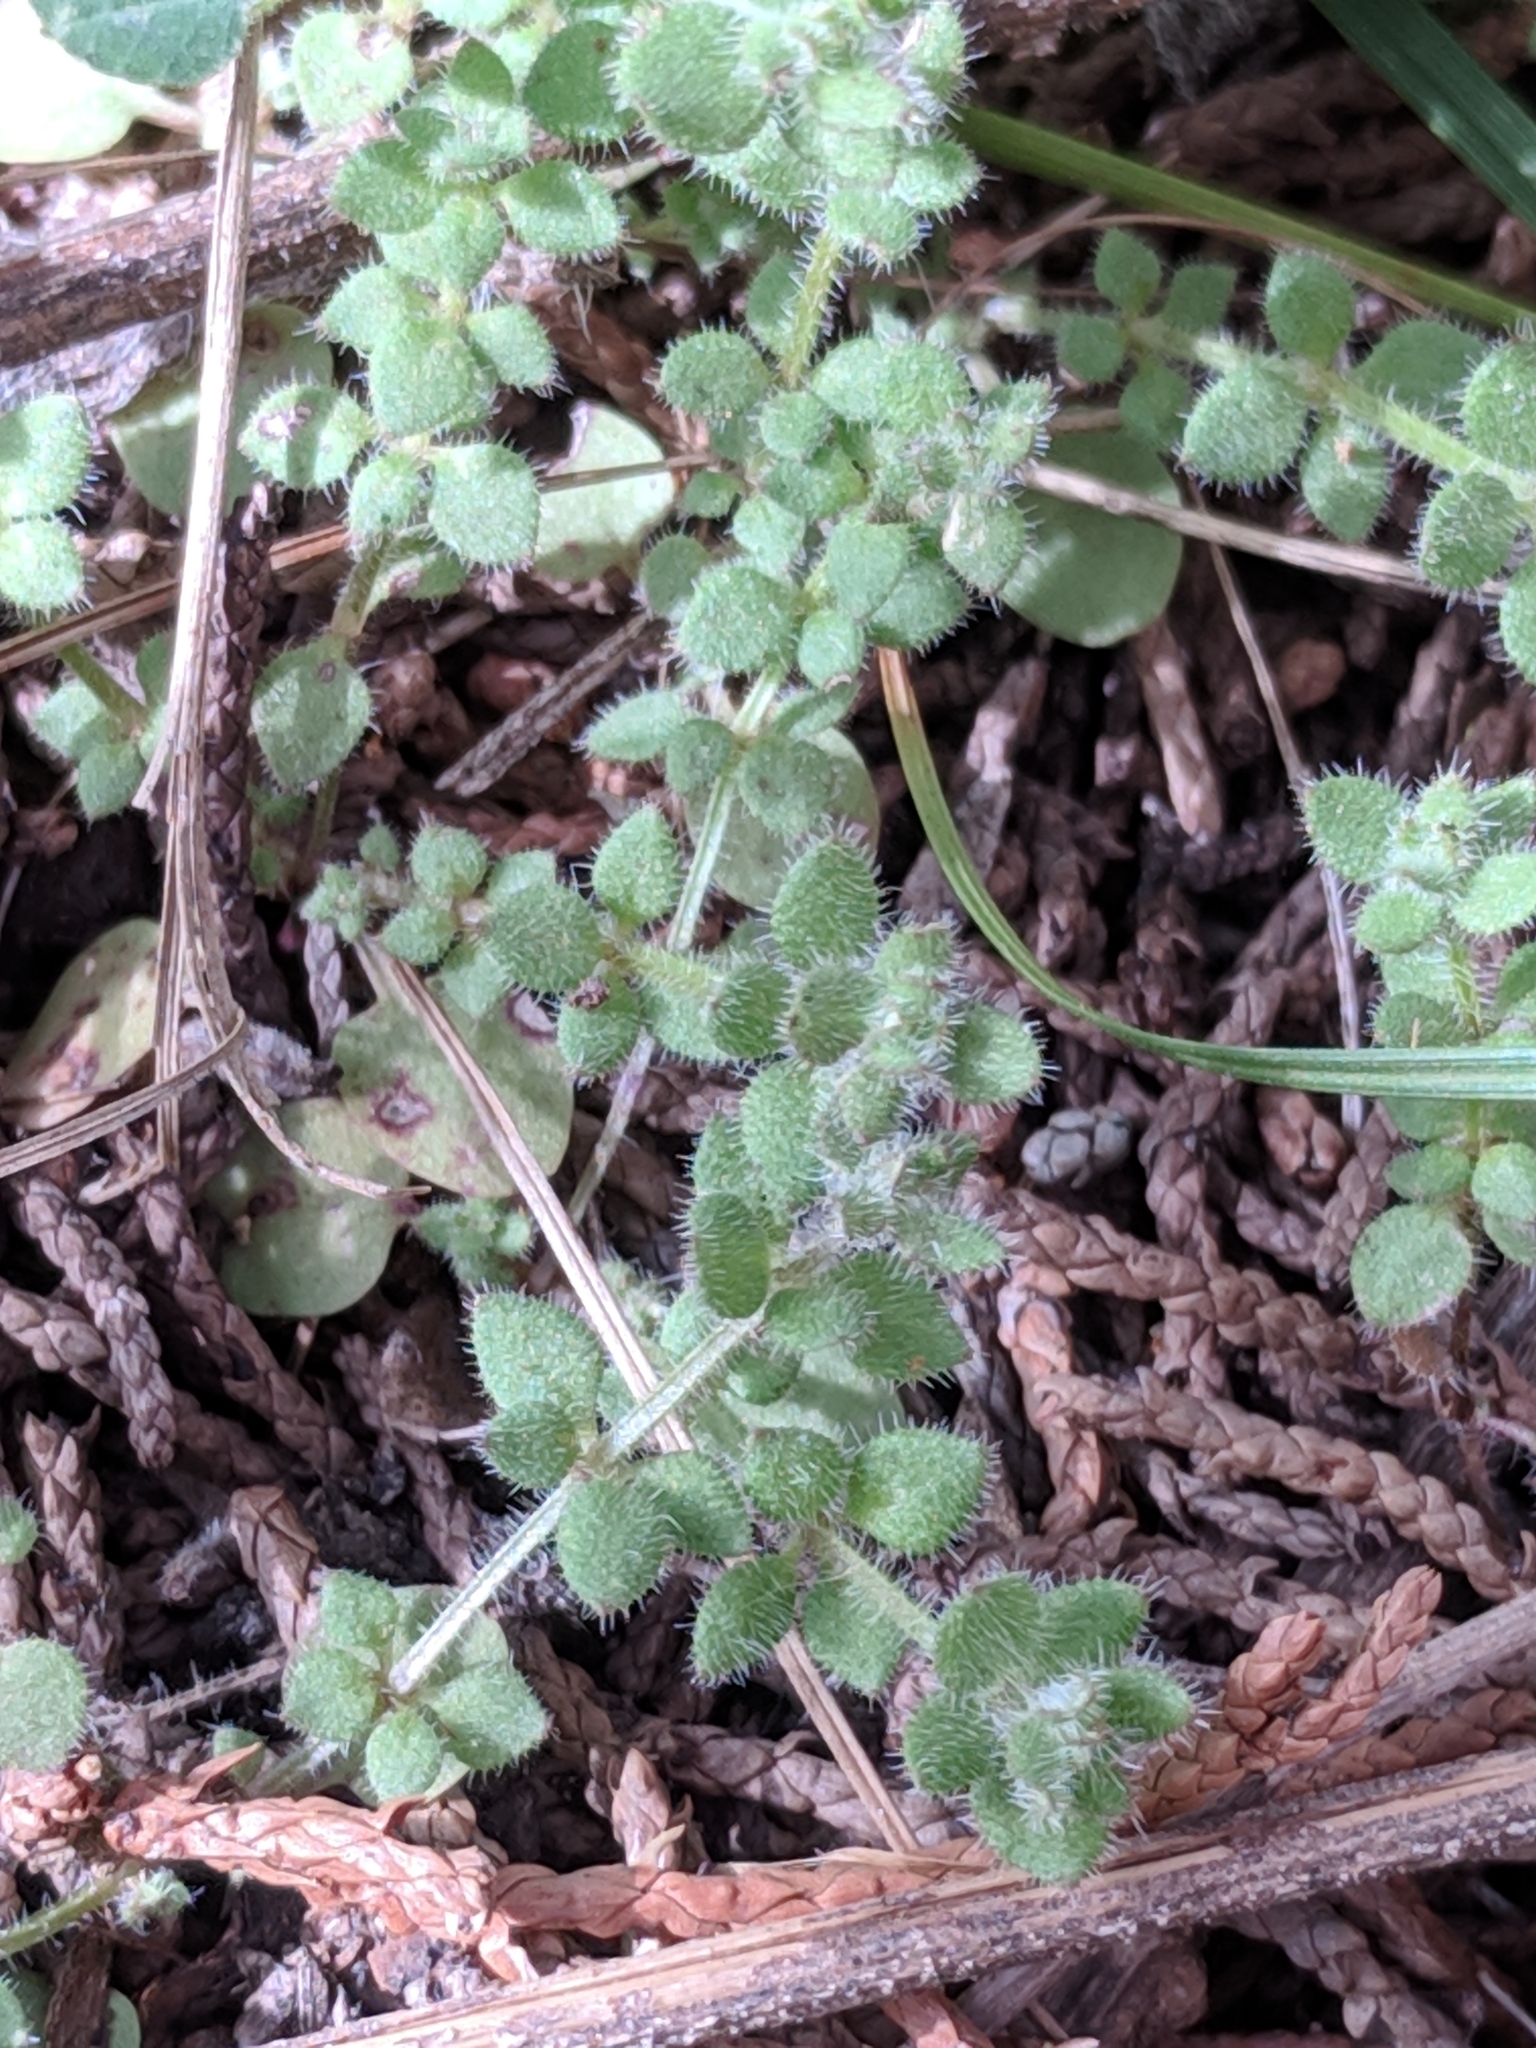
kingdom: Plantae
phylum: Tracheophyta
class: Magnoliopsida
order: Gentianales
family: Rubiaceae
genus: Galium
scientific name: Galium texense
